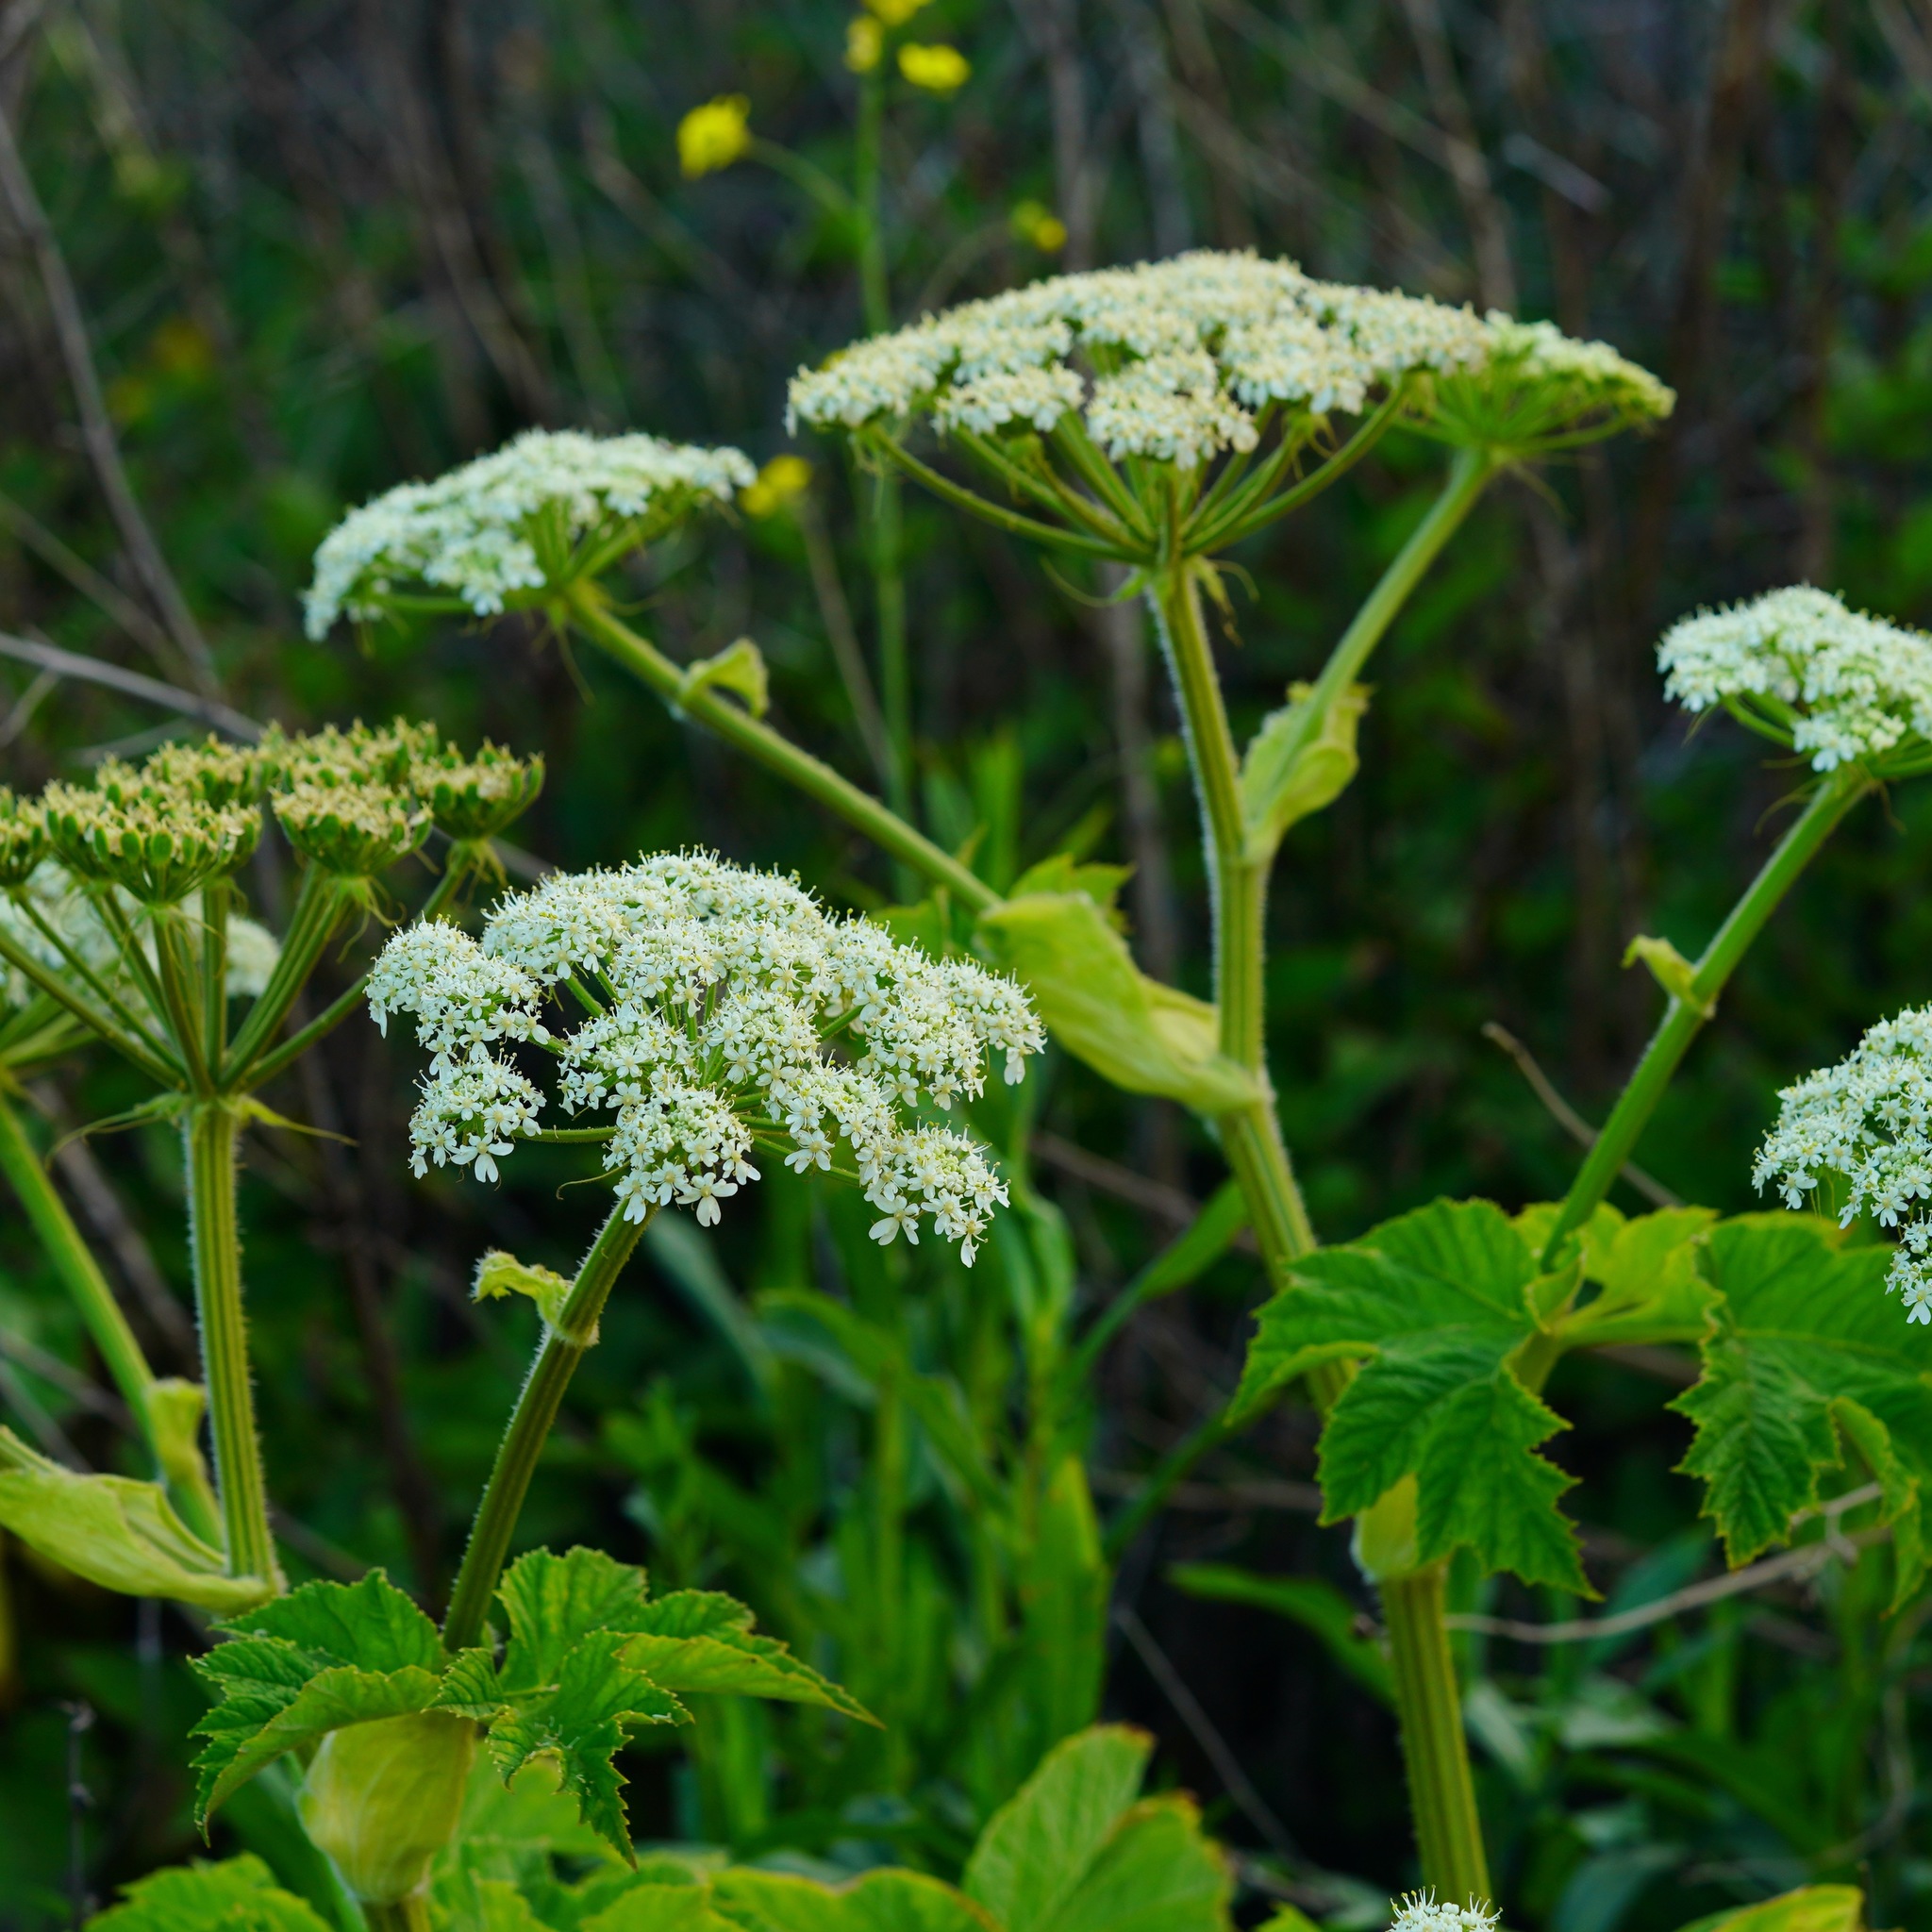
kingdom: Plantae
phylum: Tracheophyta
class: Magnoliopsida
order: Apiales
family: Apiaceae
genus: Heracleum
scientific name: Heracleum maximum
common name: American cow parsnip
